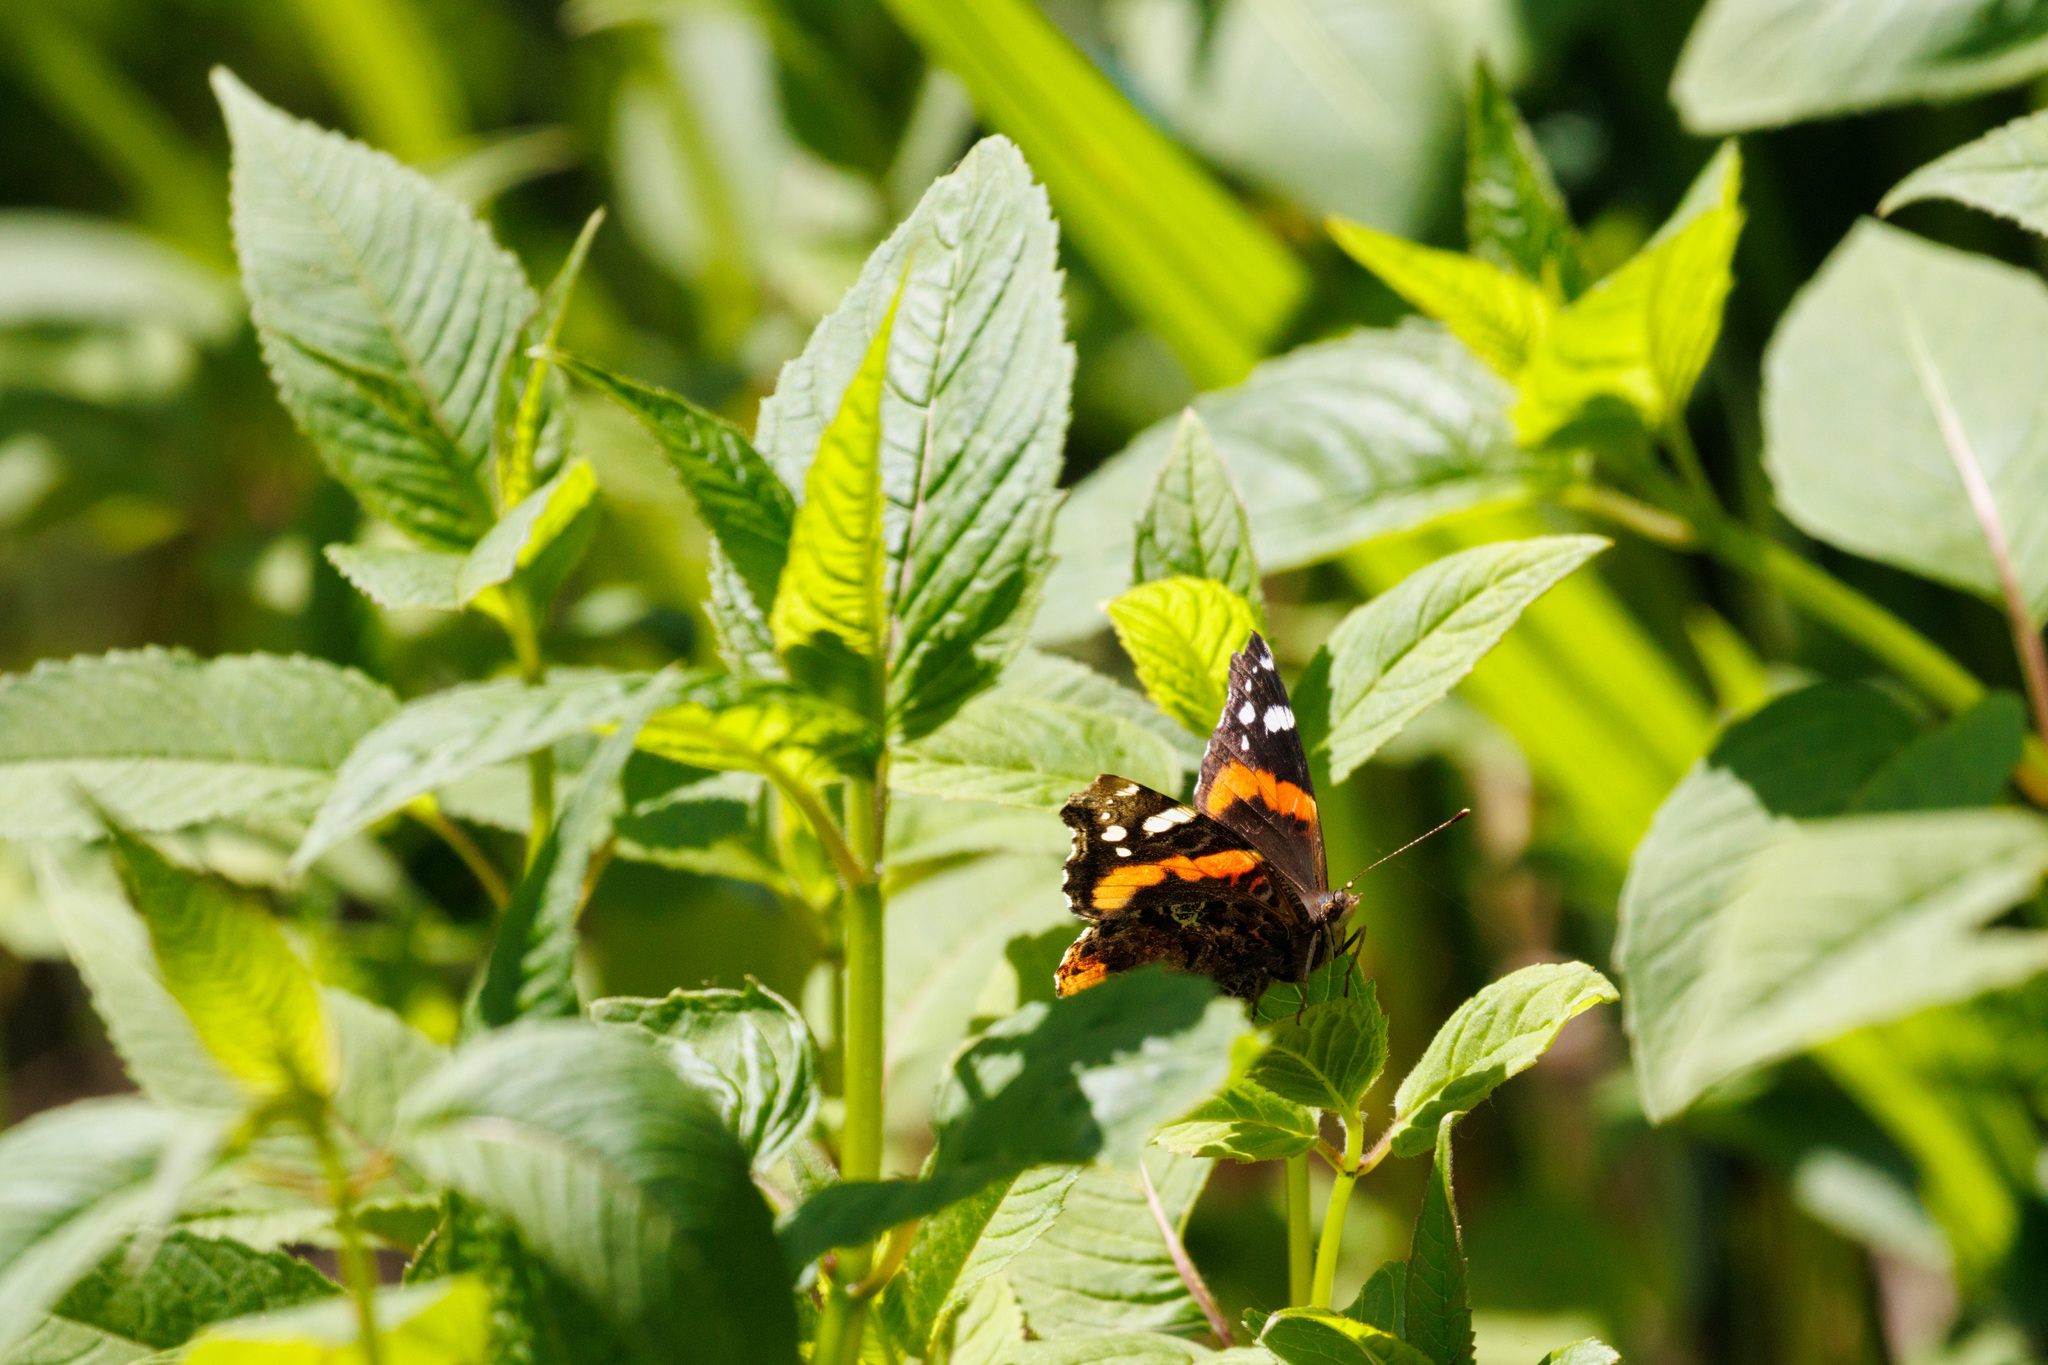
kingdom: Animalia
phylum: Arthropoda
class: Insecta
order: Lepidoptera
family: Nymphalidae
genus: Vanessa
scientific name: Vanessa atalanta
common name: Red admiral
